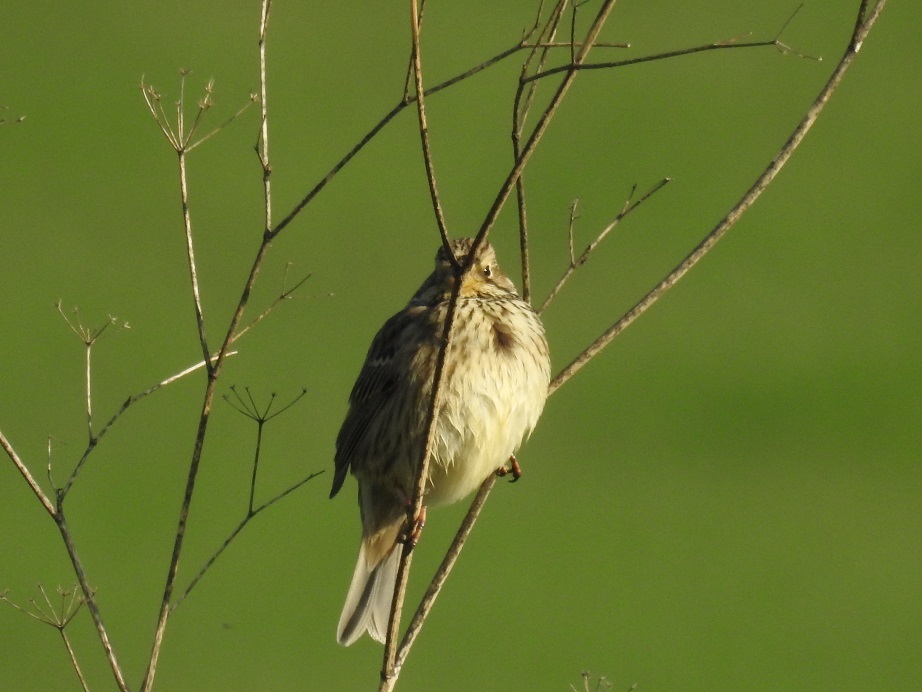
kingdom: Animalia
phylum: Chordata
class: Aves
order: Passeriformes
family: Emberizidae
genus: Emberiza
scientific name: Emberiza calandra
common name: Corn bunting
